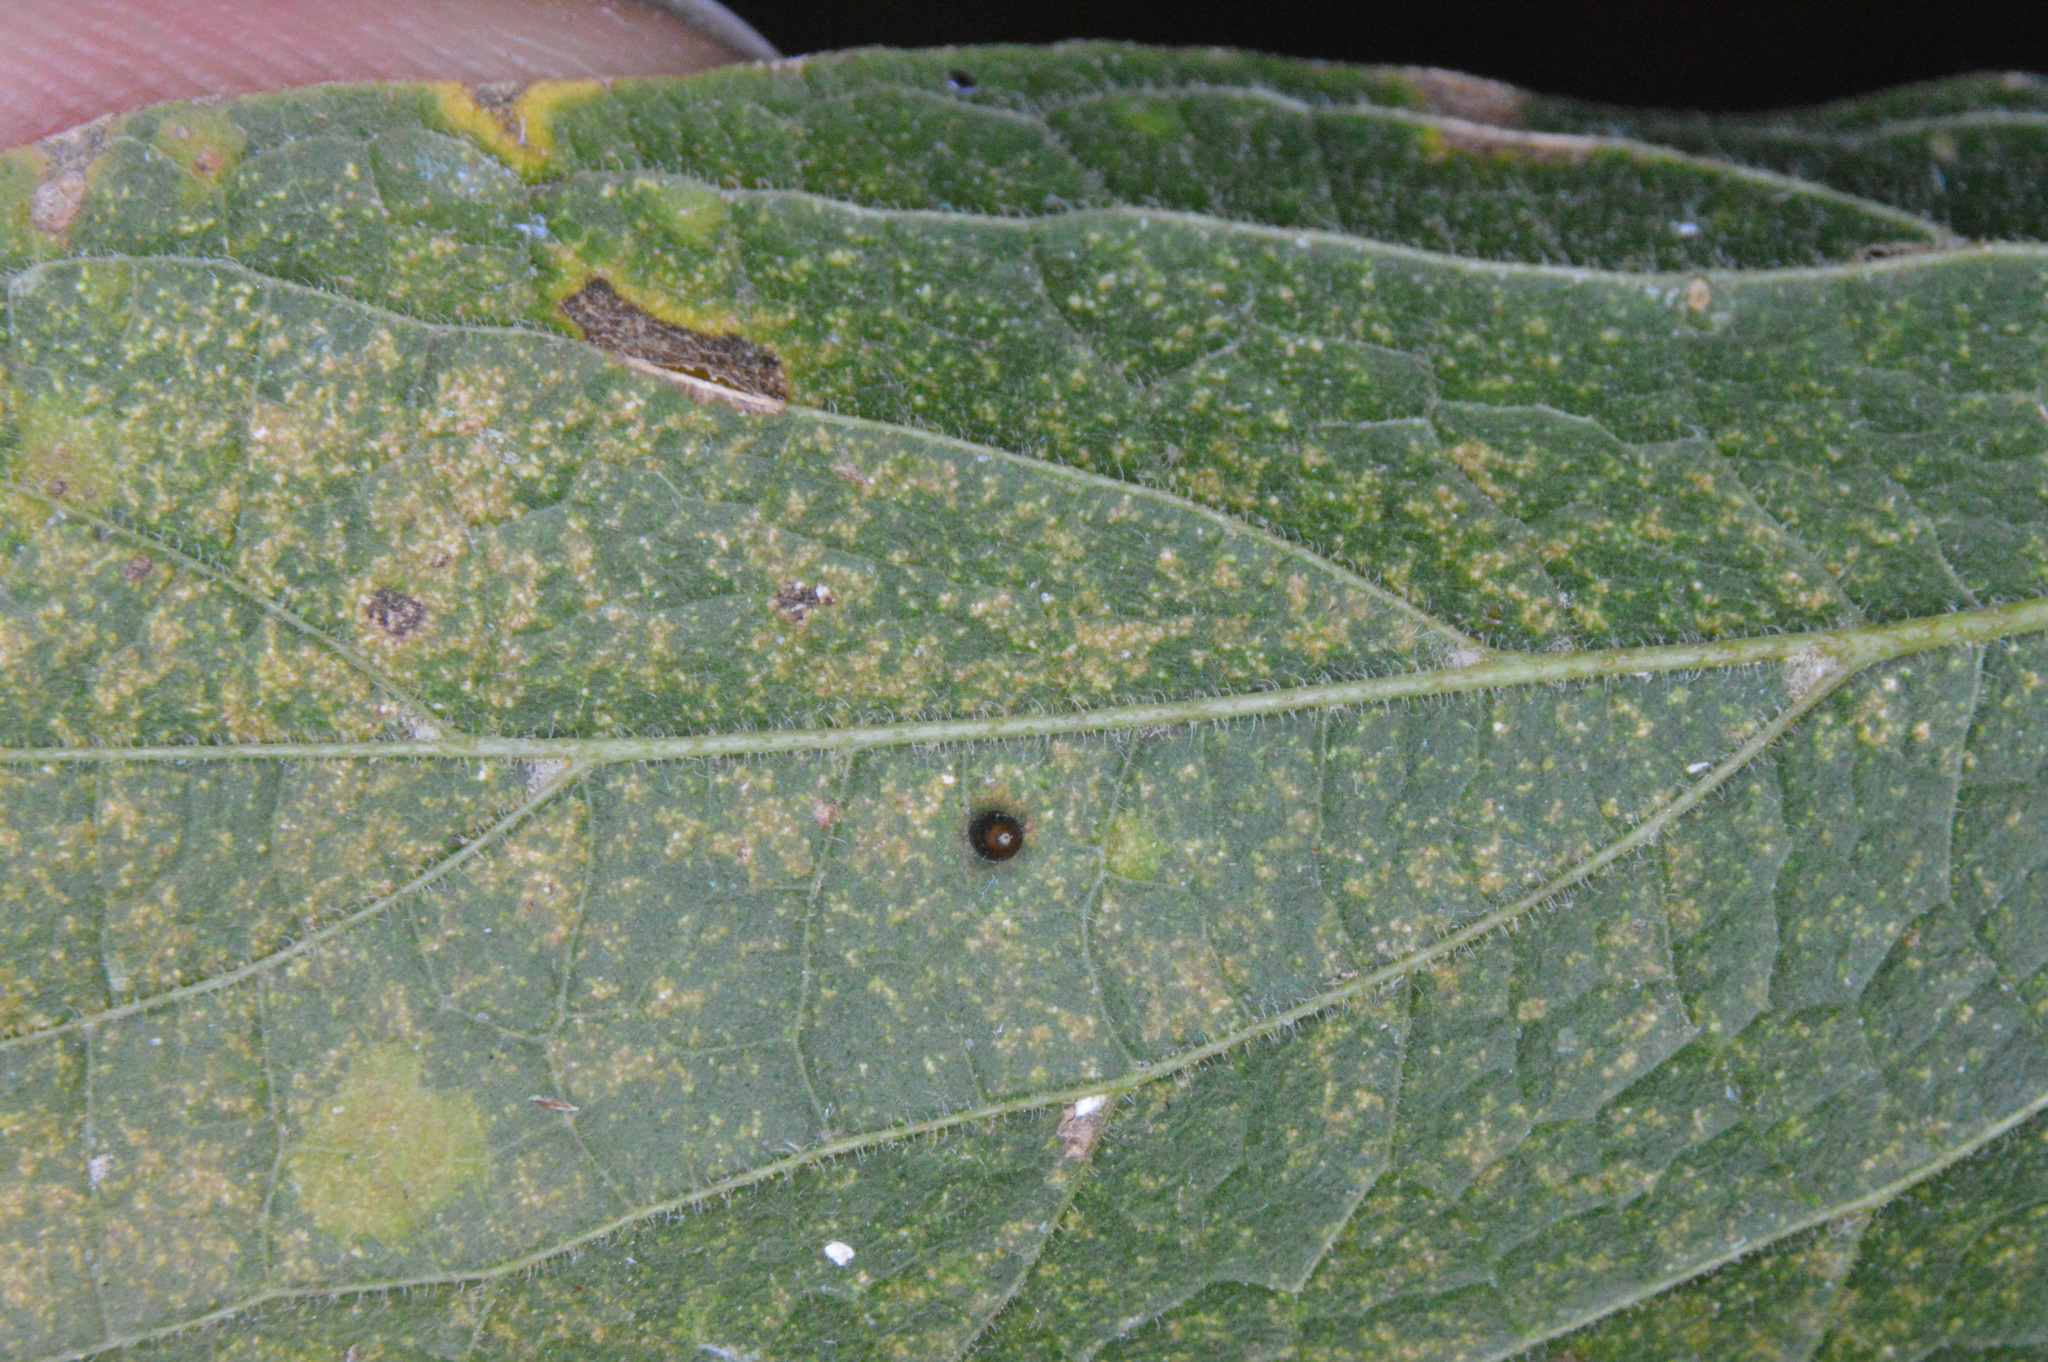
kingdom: Animalia
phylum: Arthropoda
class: Insecta
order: Diptera
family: Cecidomyiidae
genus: Celticecis
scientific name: Celticecis cupiformis
